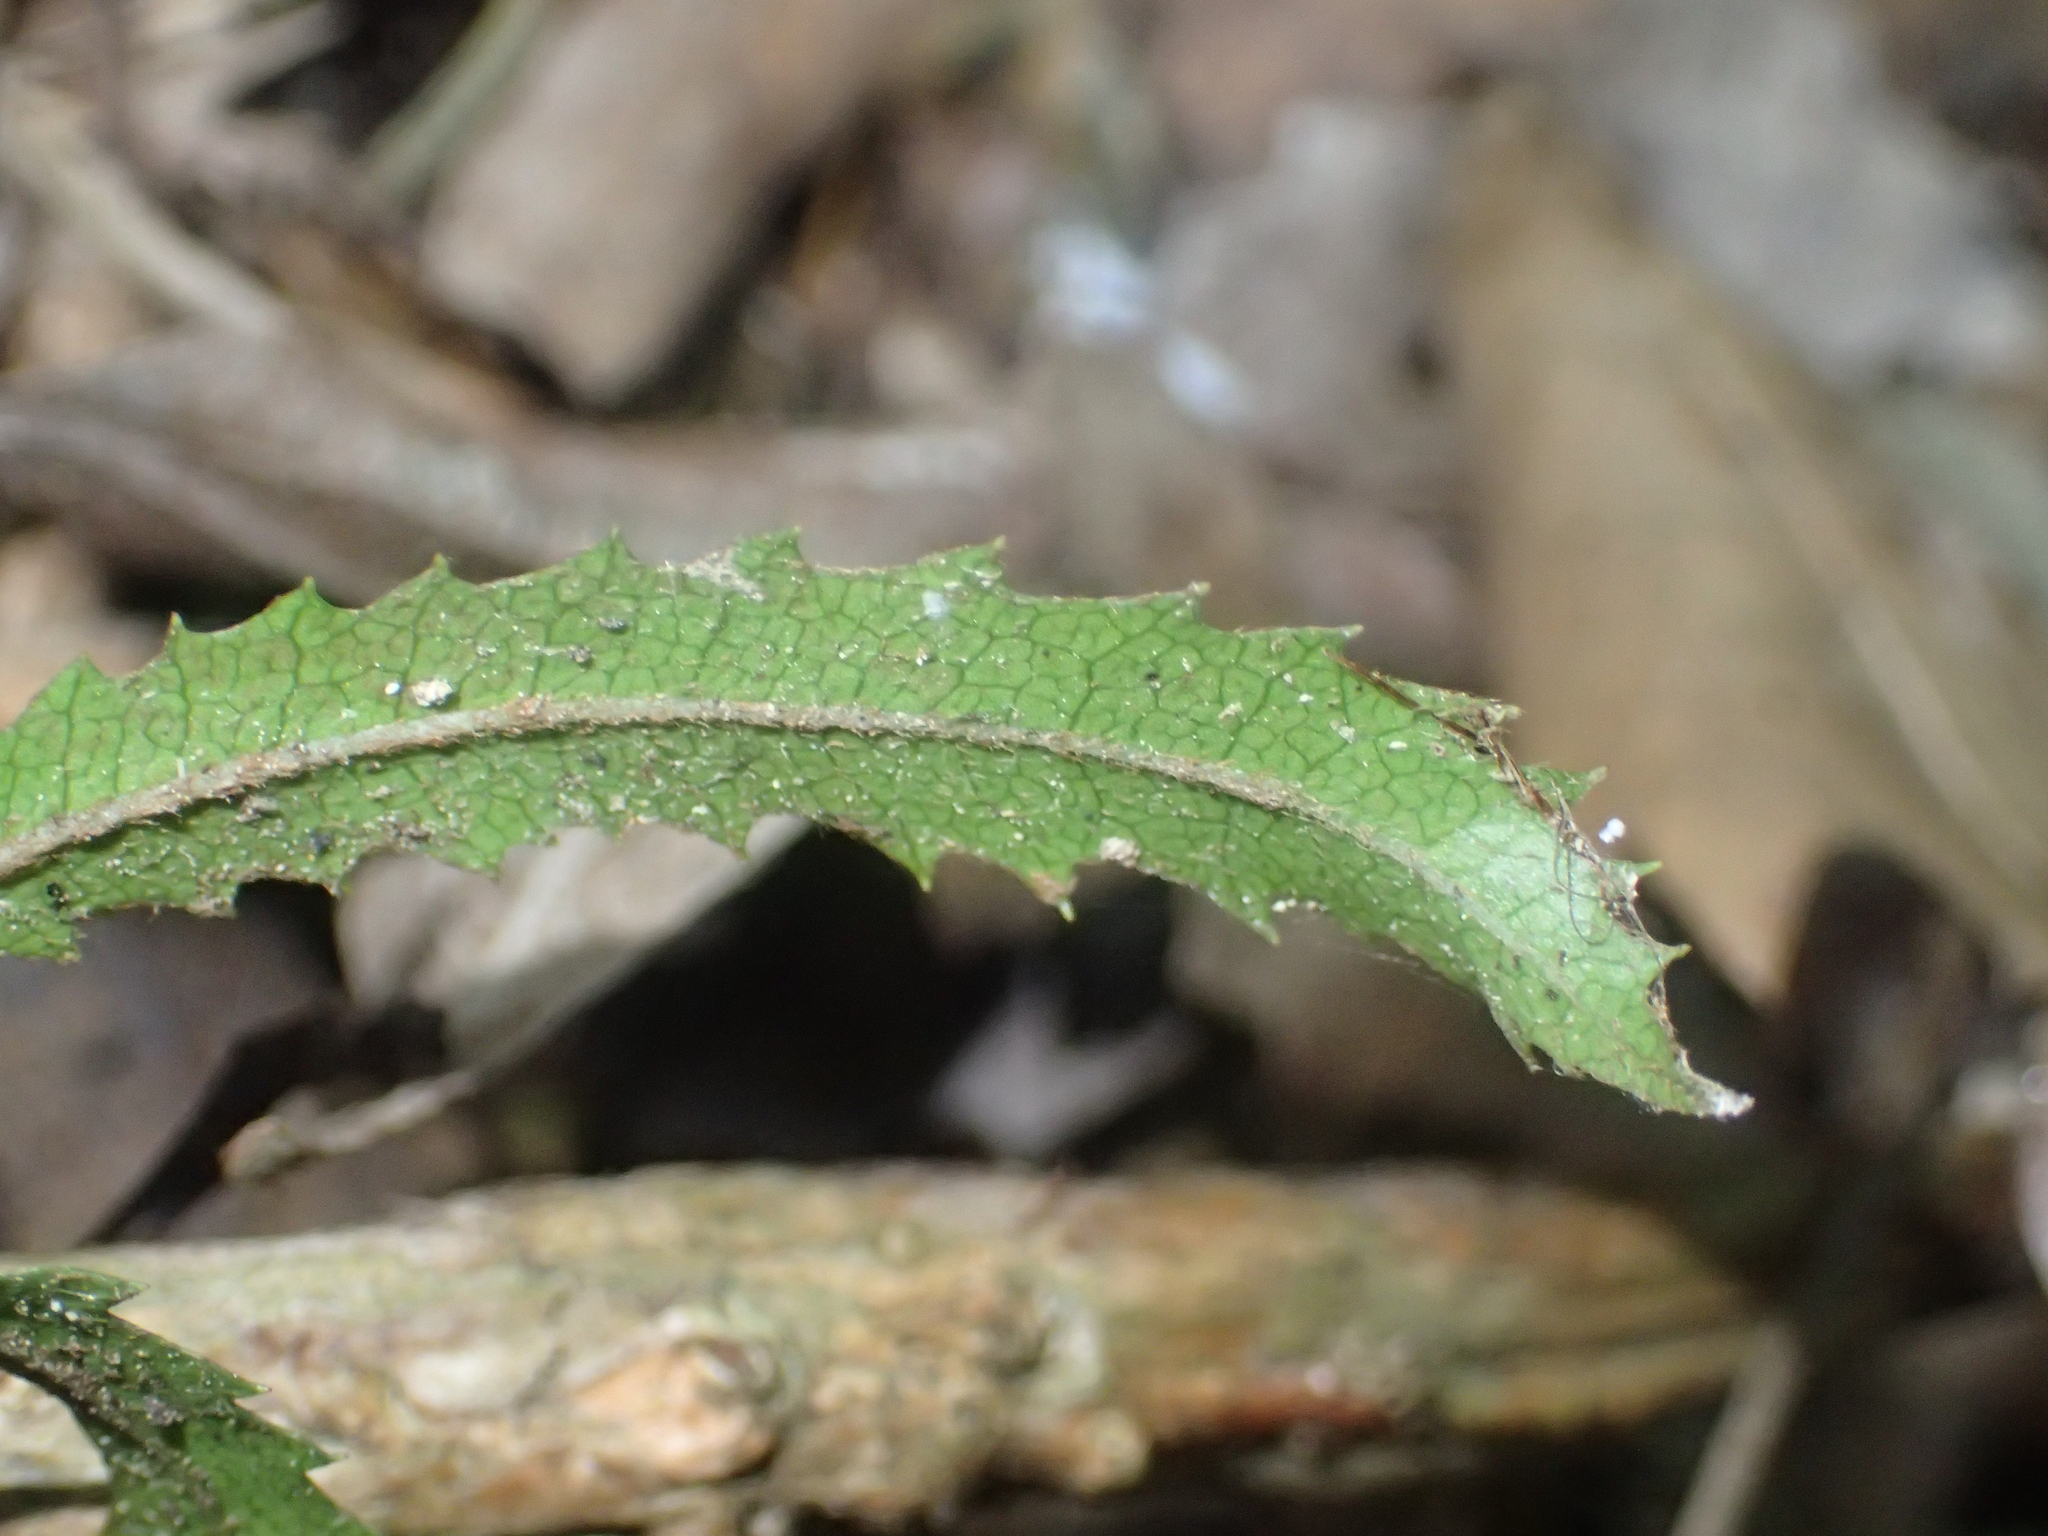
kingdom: Plantae
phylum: Tracheophyta
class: Magnoliopsida
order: Proteales
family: Proteaceae
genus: Knightia
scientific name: Knightia excelsa
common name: New zealand-honeysuckle
